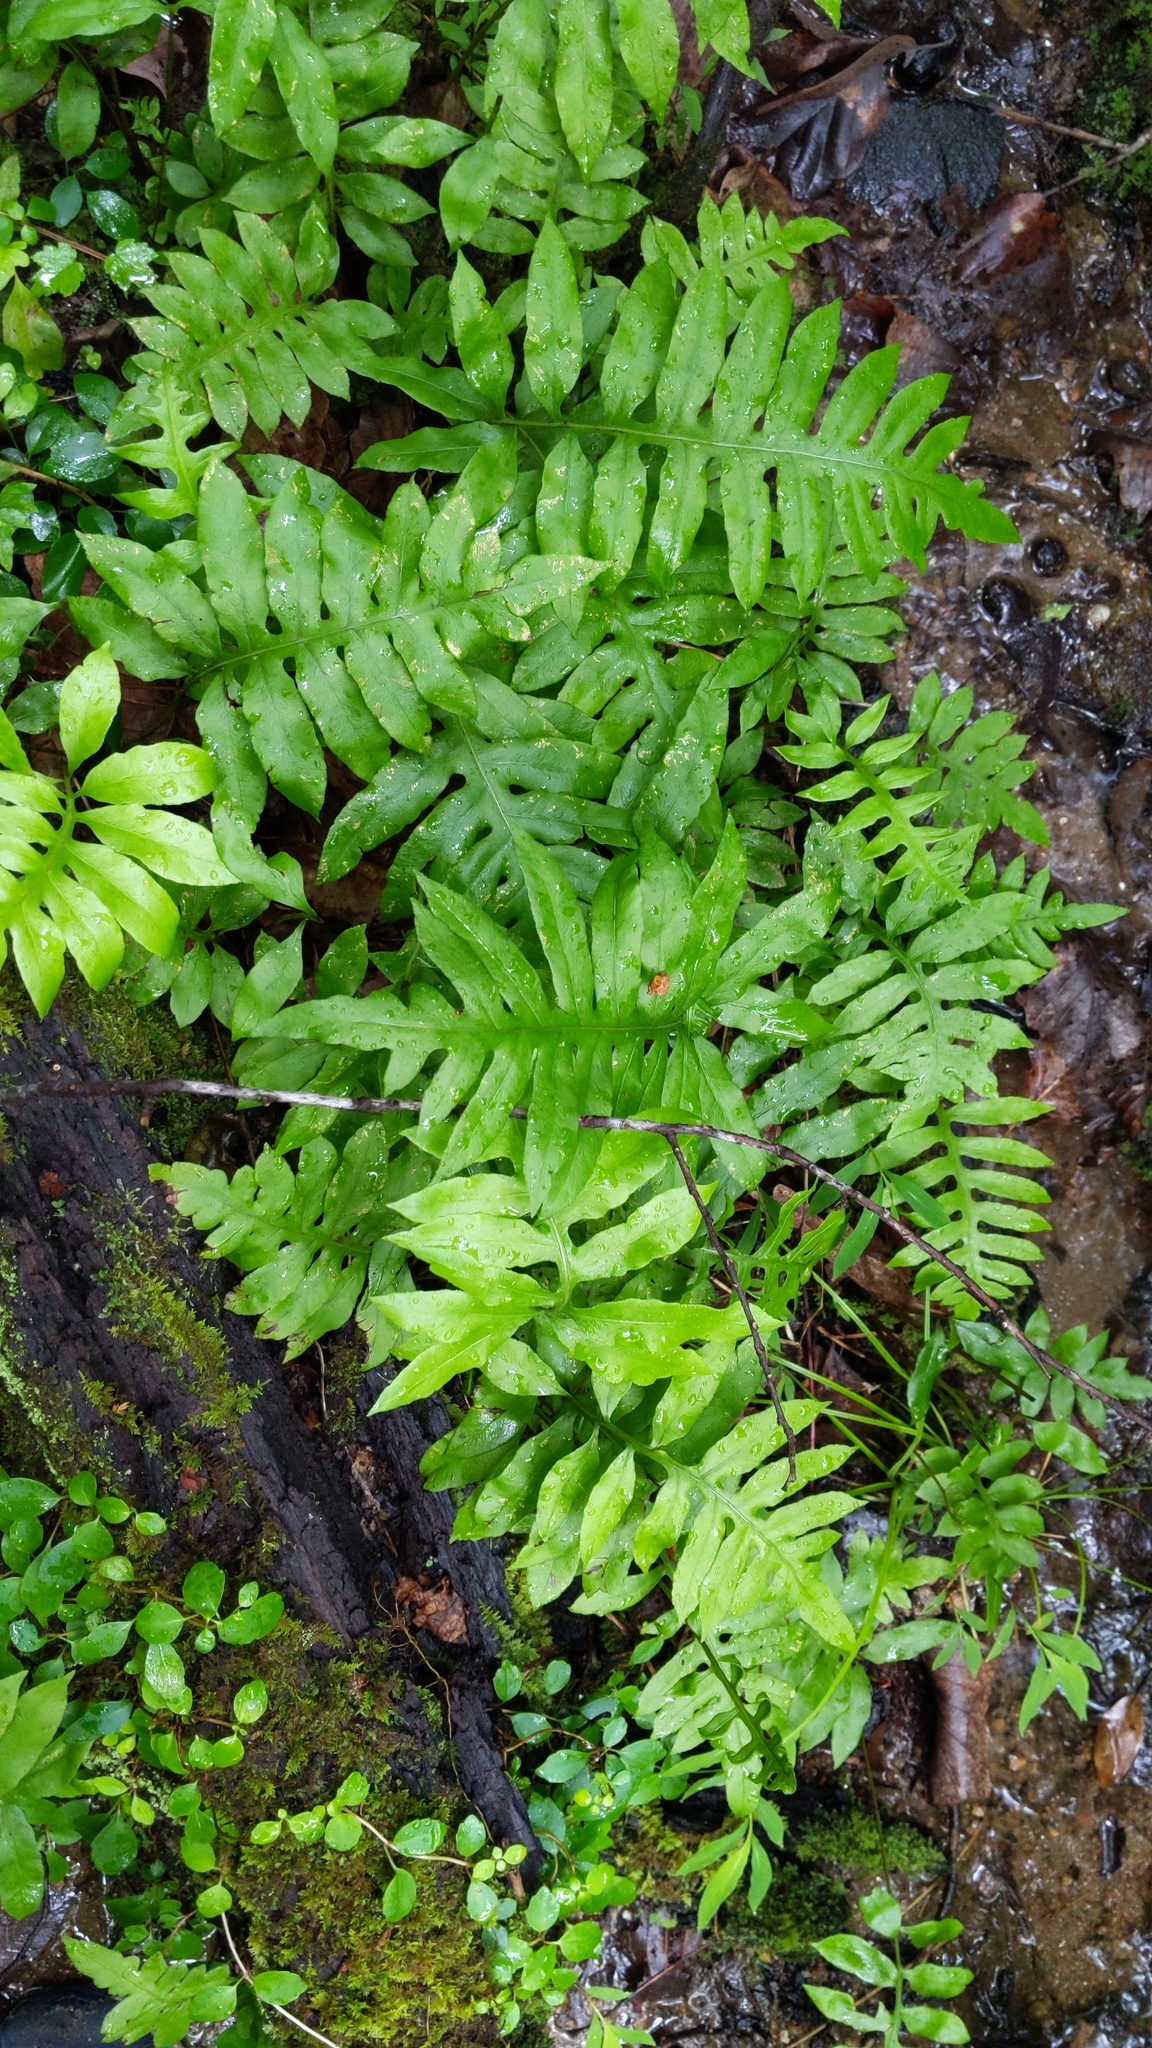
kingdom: Plantae
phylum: Tracheophyta
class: Polypodiopsida
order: Polypodiales
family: Blechnaceae
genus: Lorinseria
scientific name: Lorinseria areolata
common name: Dwarf chain fern
